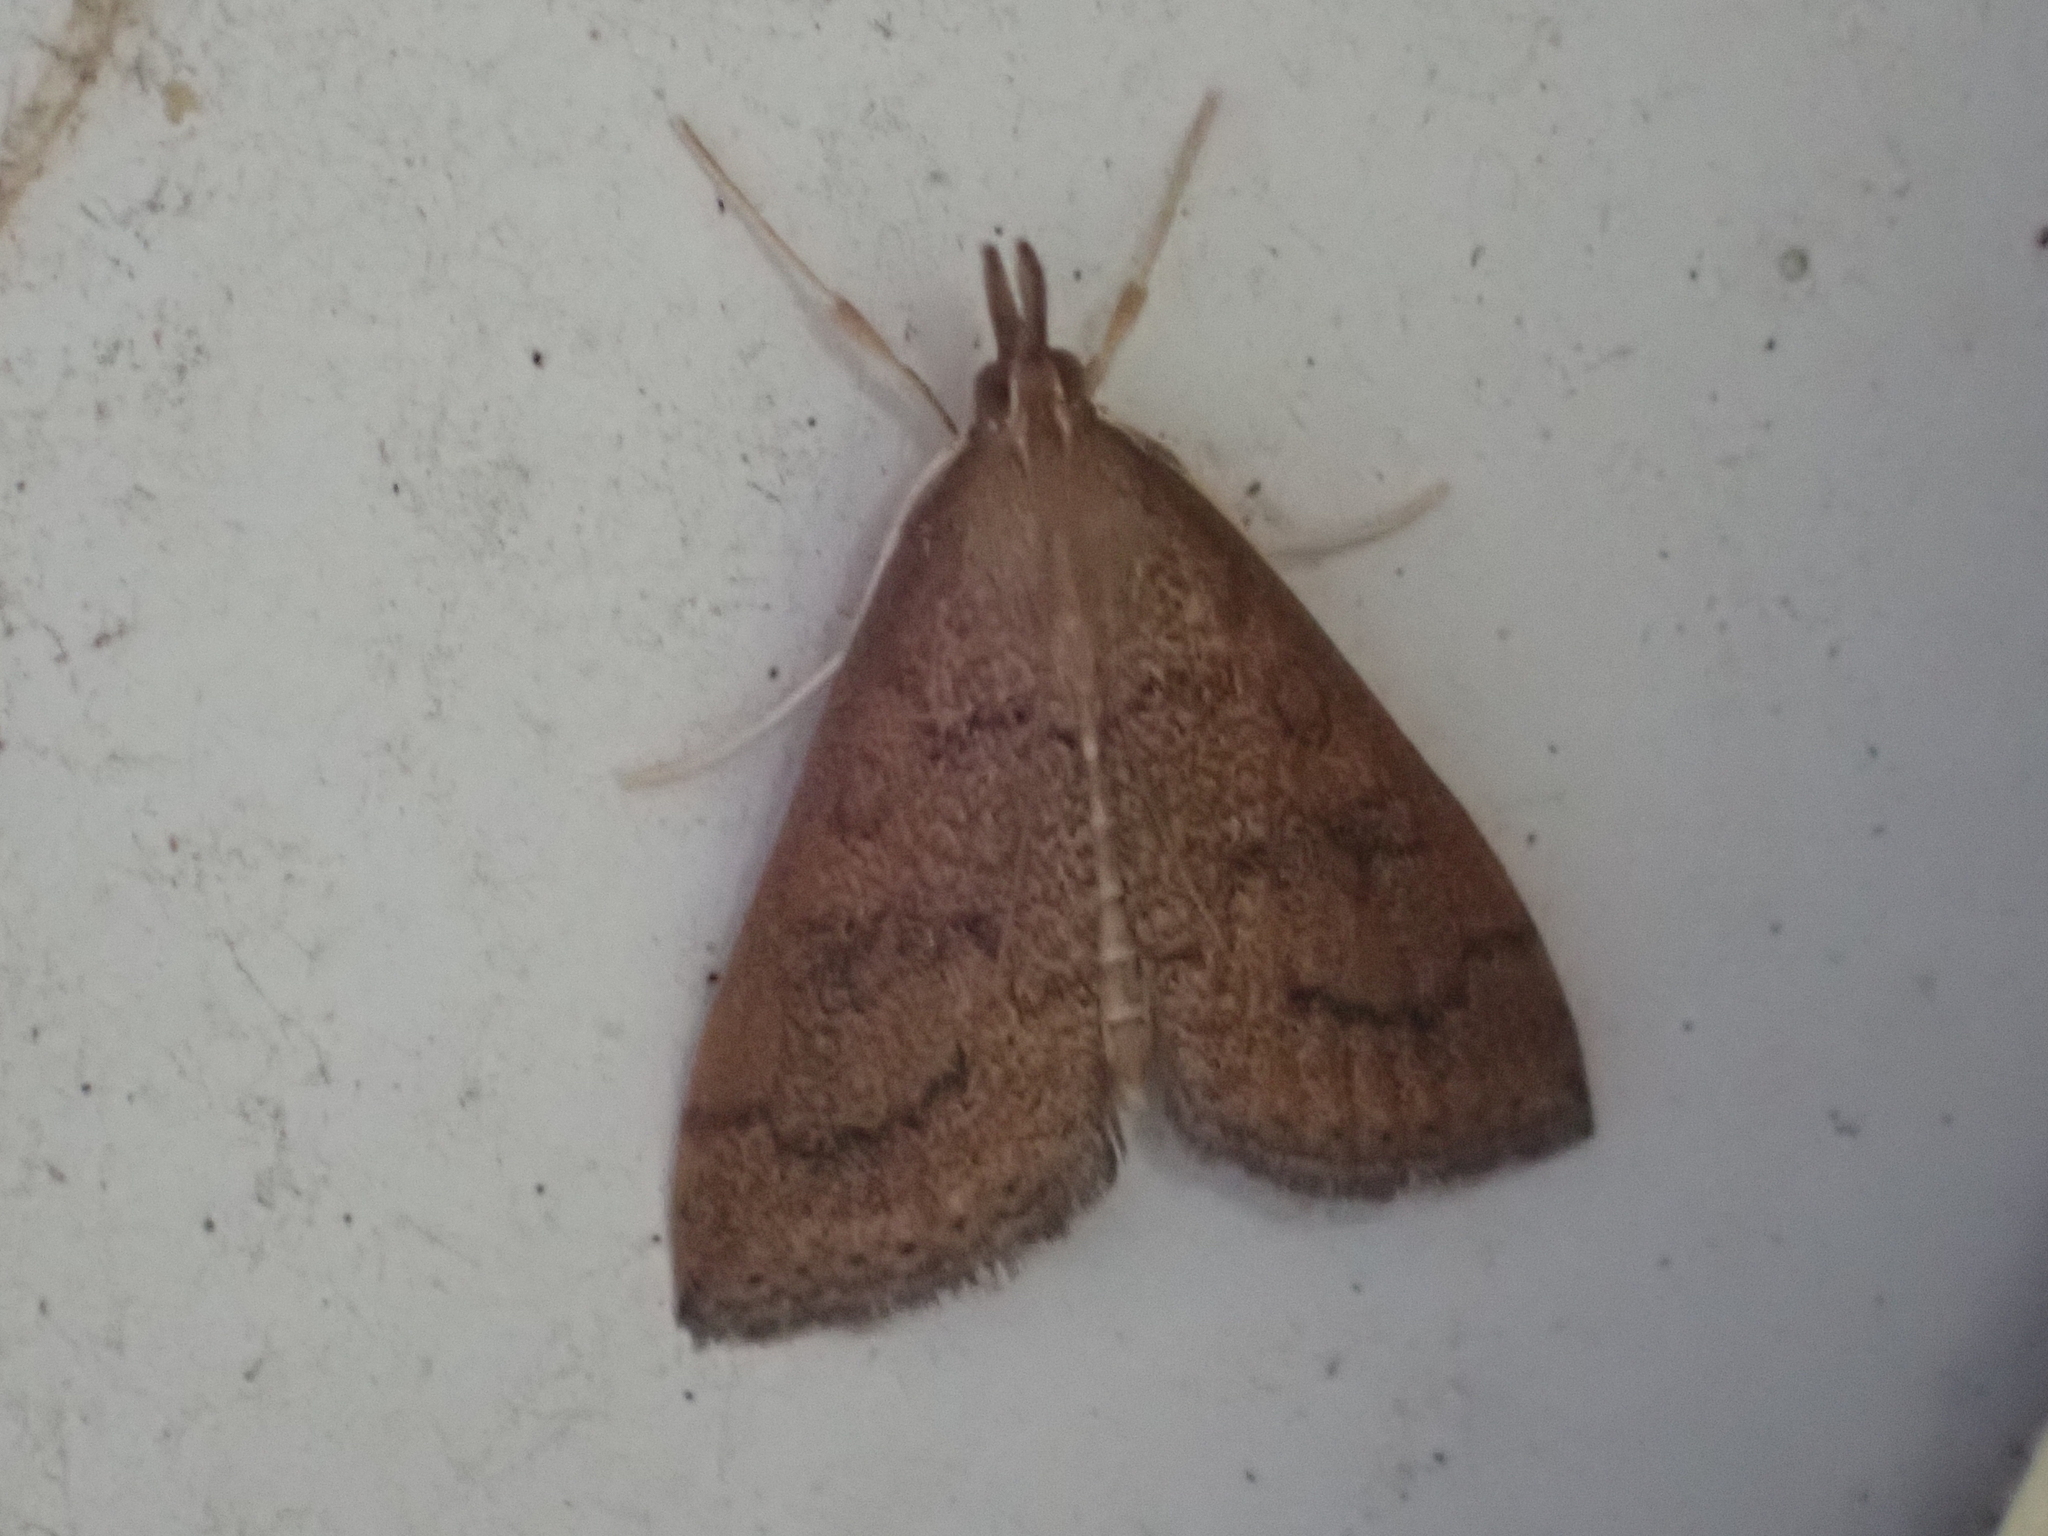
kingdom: Animalia
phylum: Arthropoda
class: Insecta
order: Lepidoptera
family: Crambidae
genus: Udea
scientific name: Udea rubigalis
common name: Celery leaftier moth
